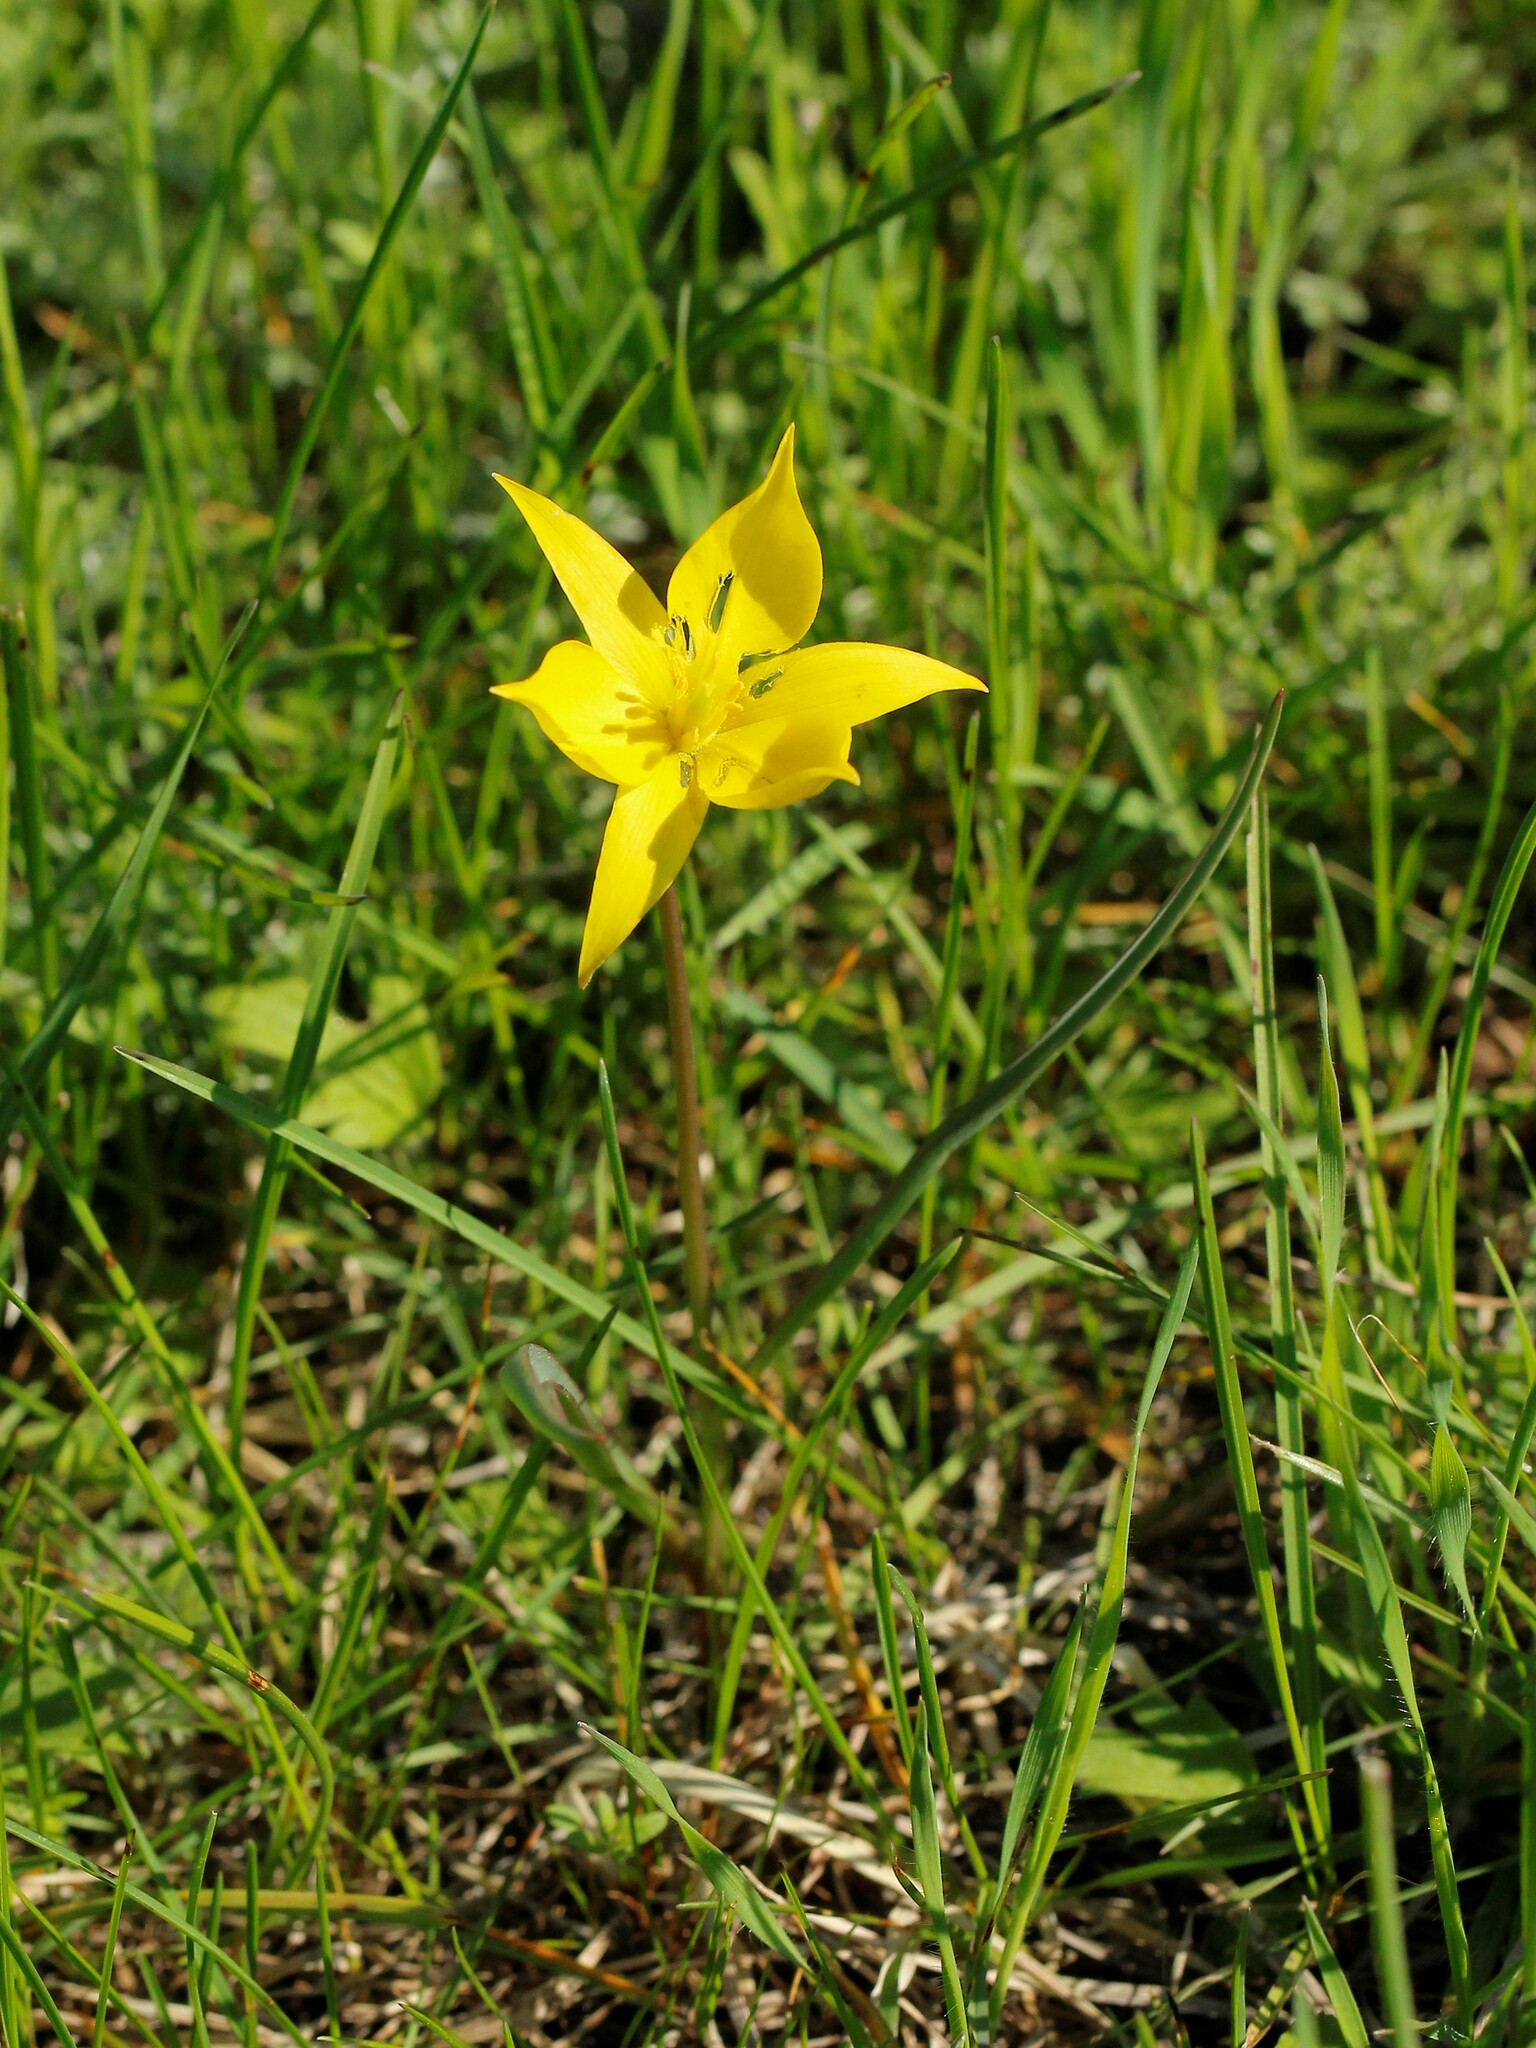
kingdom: Plantae
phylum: Tracheophyta
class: Liliopsida
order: Liliales
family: Liliaceae
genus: Tulipa
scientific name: Tulipa sylvestris
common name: Wild tulip
